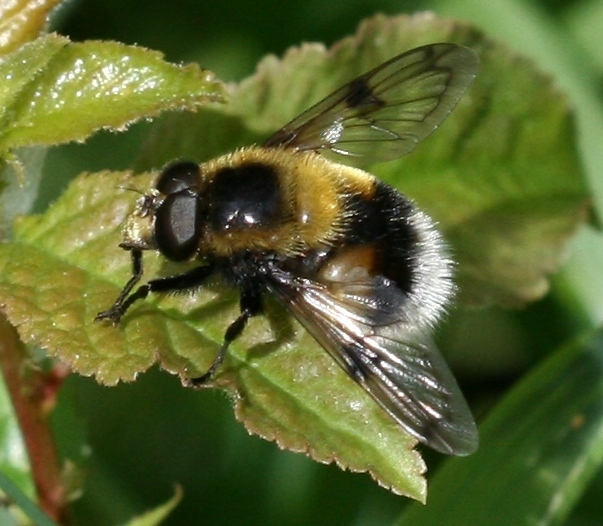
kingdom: Animalia
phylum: Arthropoda
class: Insecta
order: Diptera
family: Syrphidae
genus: Volucella
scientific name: Volucella bombylans
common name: Bumble bee hover fly
